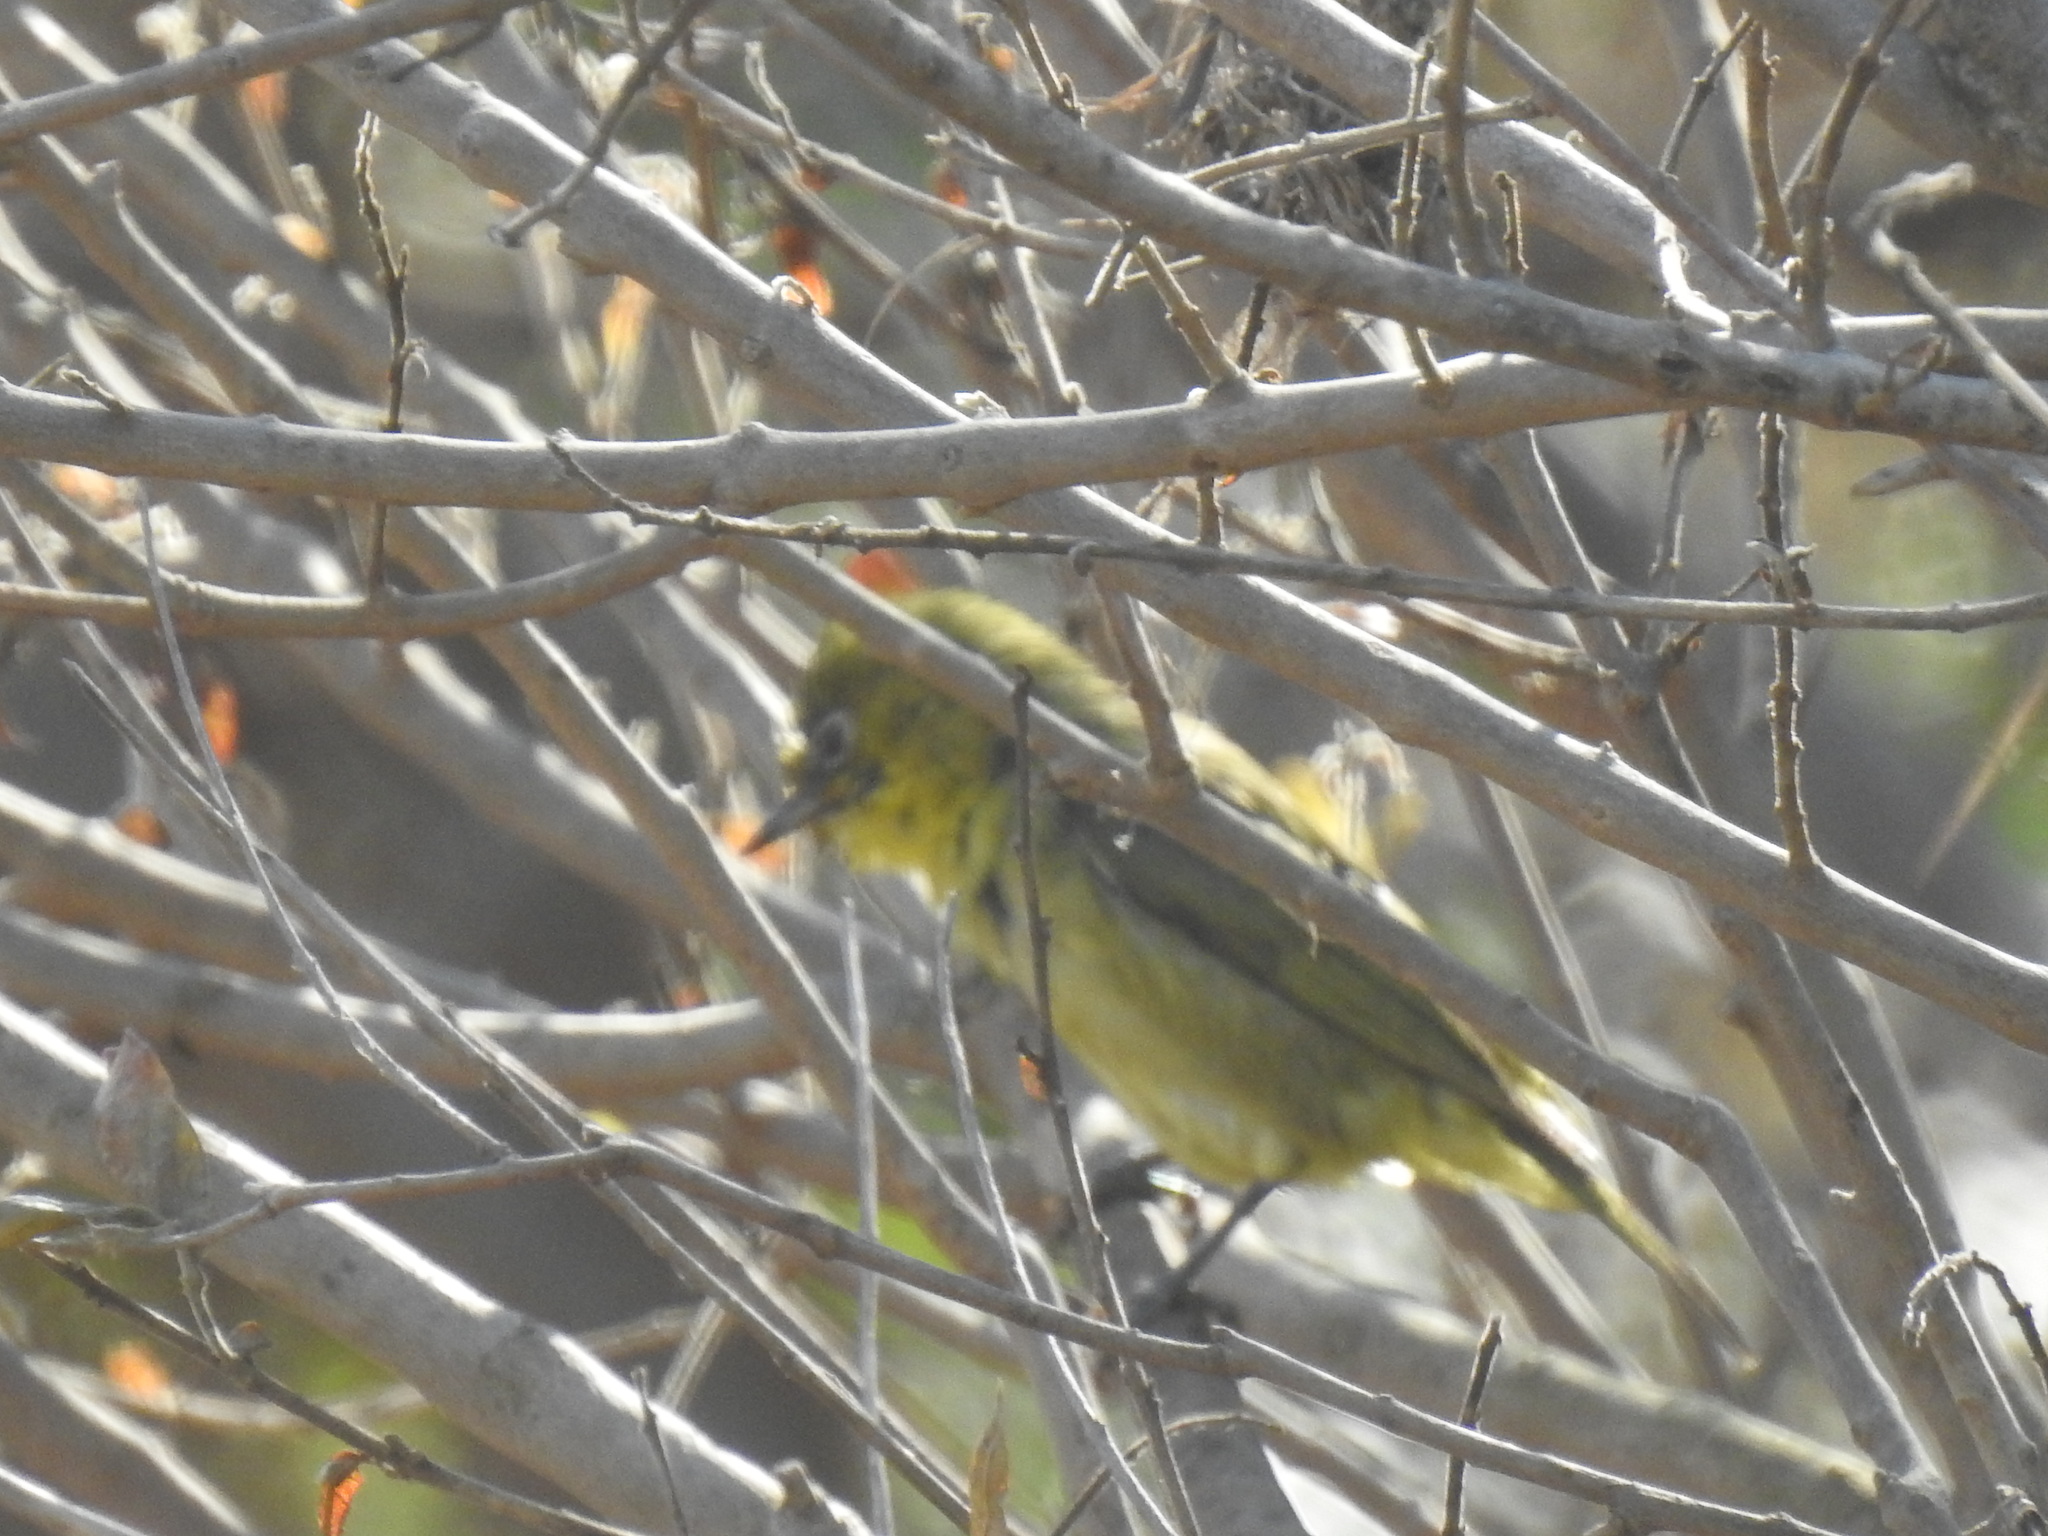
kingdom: Animalia
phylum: Chordata
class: Aves
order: Passeriformes
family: Zosteropidae
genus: Zosterops
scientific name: Zosterops virens
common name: Cape white-eye
